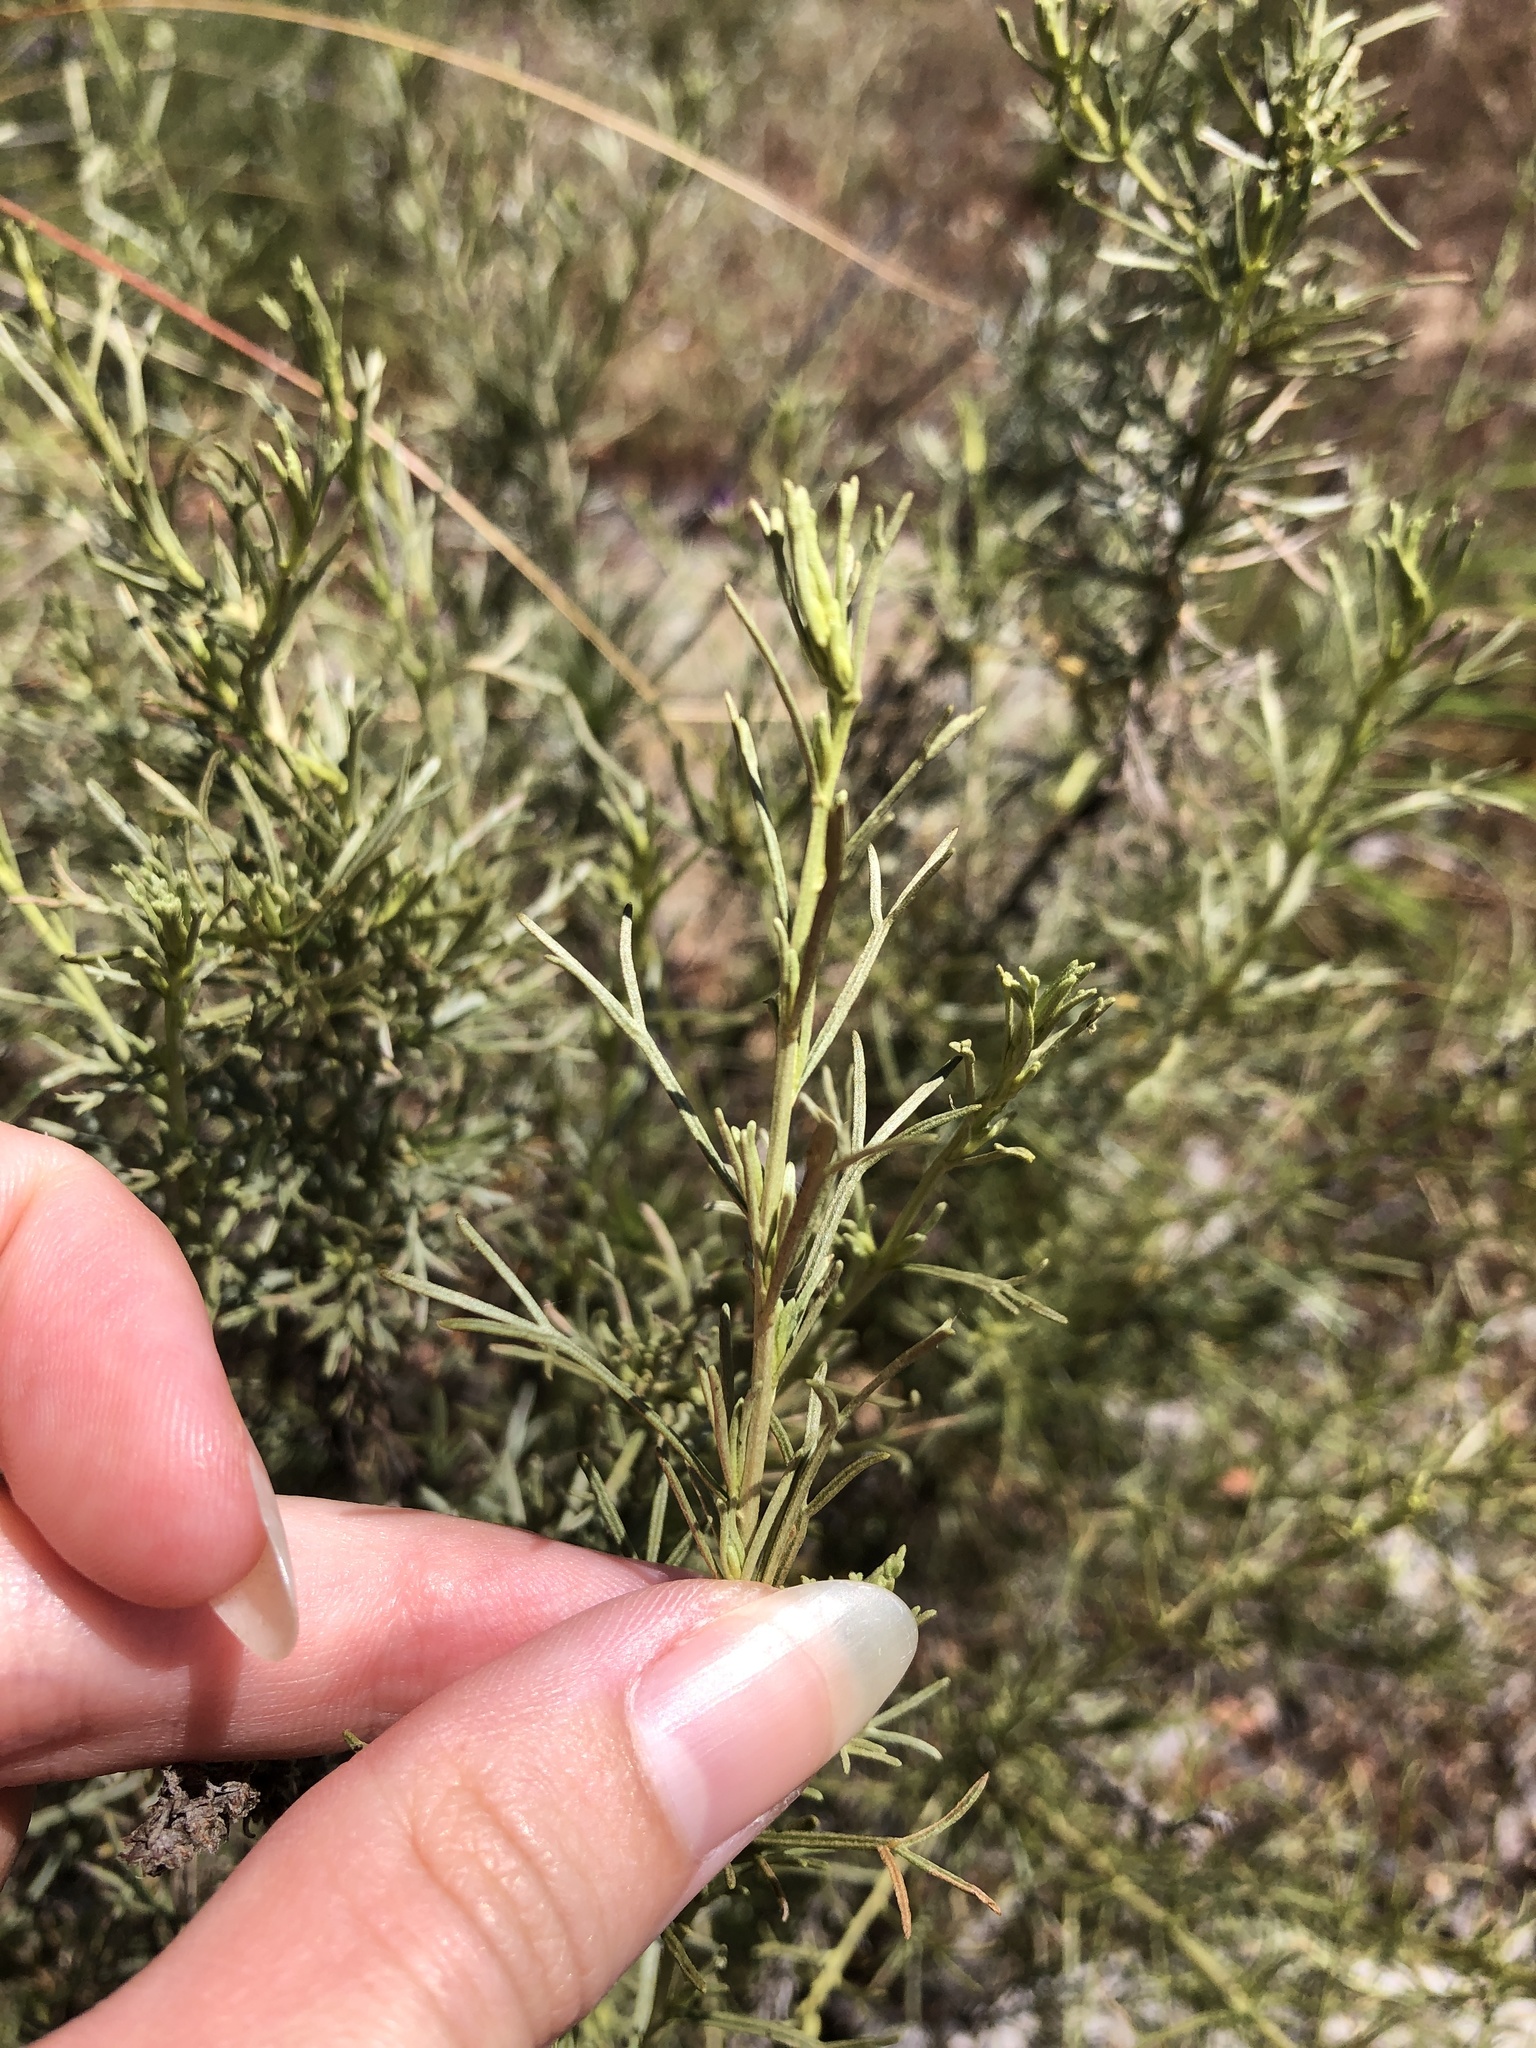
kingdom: Plantae
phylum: Tracheophyta
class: Magnoliopsida
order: Asterales
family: Asteraceae
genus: Artemisia
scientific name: Artemisia californica
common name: California sagebrush
